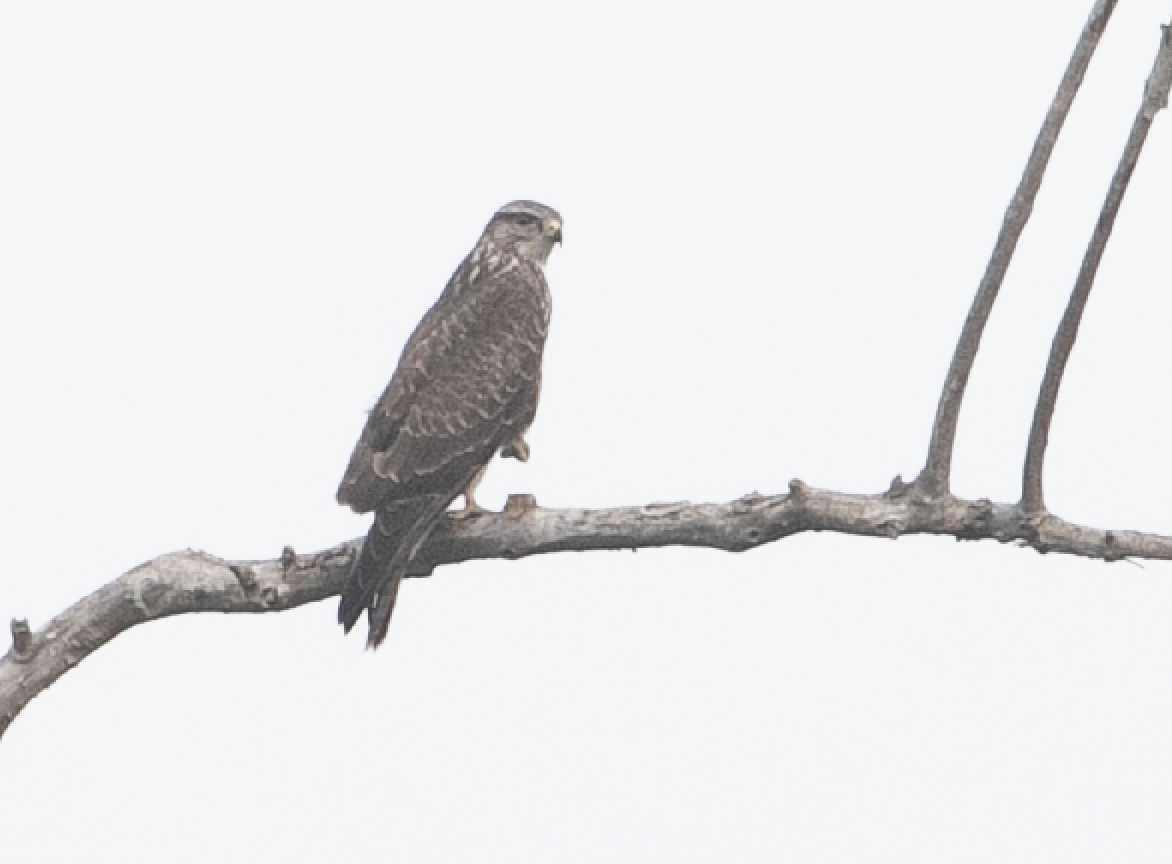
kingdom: Animalia
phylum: Chordata
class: Aves
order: Accipitriformes
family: Accipitridae
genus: Buteo
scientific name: Buteo buteo
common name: Common buzzard
